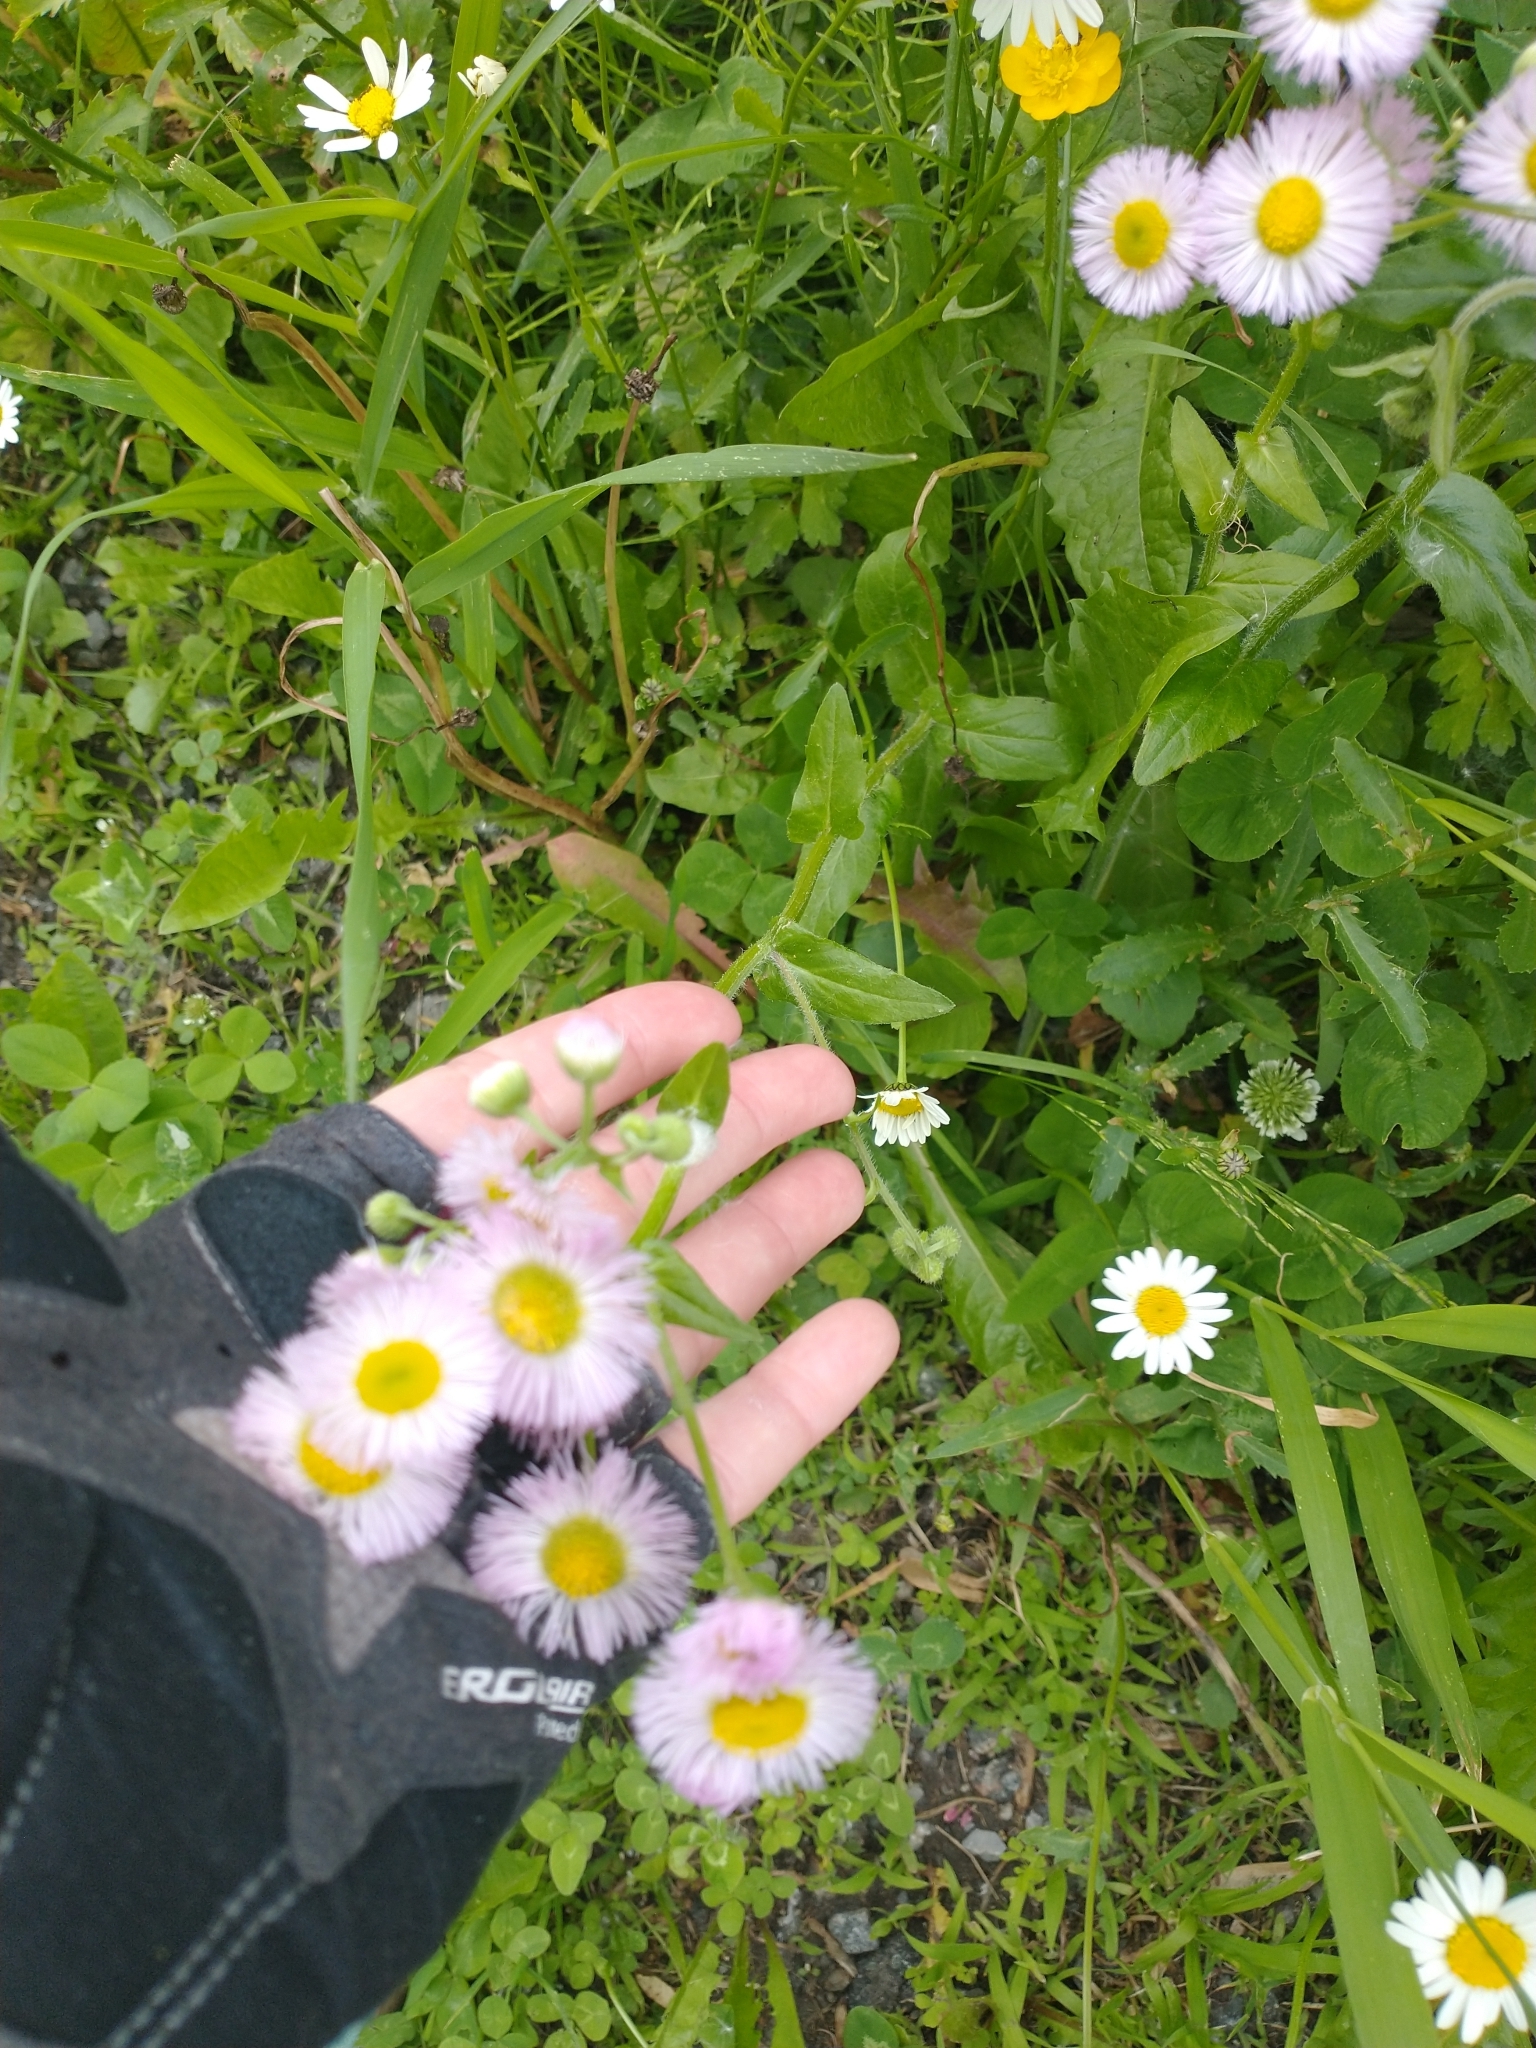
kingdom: Plantae
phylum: Tracheophyta
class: Magnoliopsida
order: Asterales
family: Asteraceae
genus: Erigeron
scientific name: Erigeron philadelphicus
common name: Robin's-plantain
